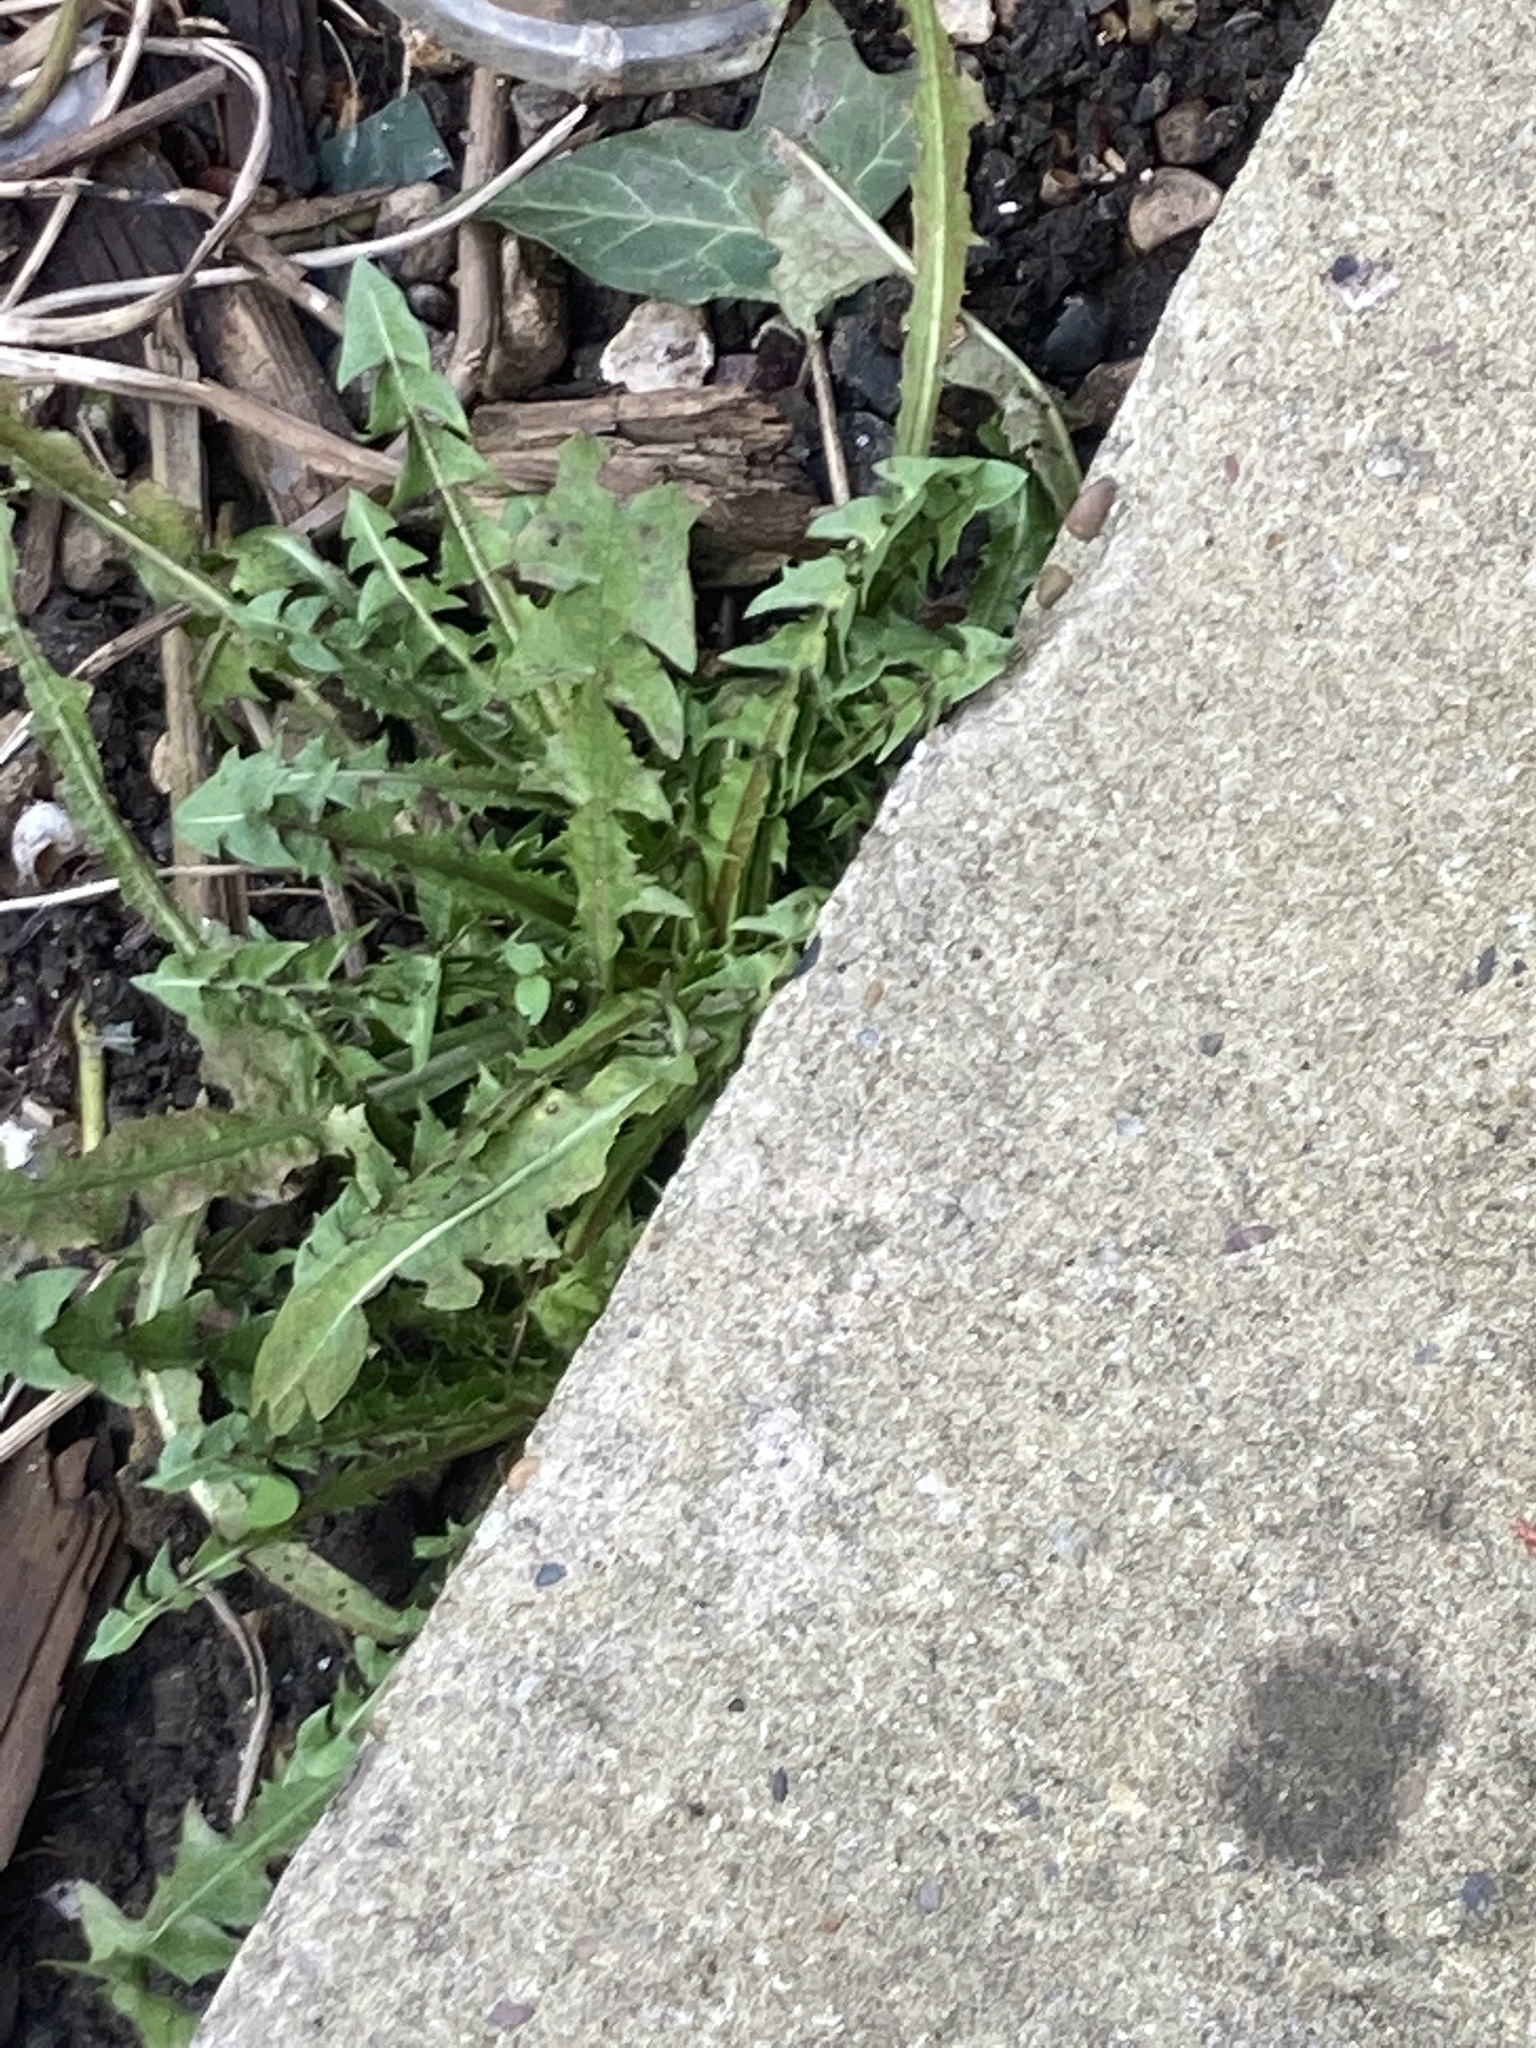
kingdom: Plantae
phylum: Tracheophyta
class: Magnoliopsida
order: Asterales
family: Asteraceae
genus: Taraxacum
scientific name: Taraxacum officinale
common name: Common dandelion
